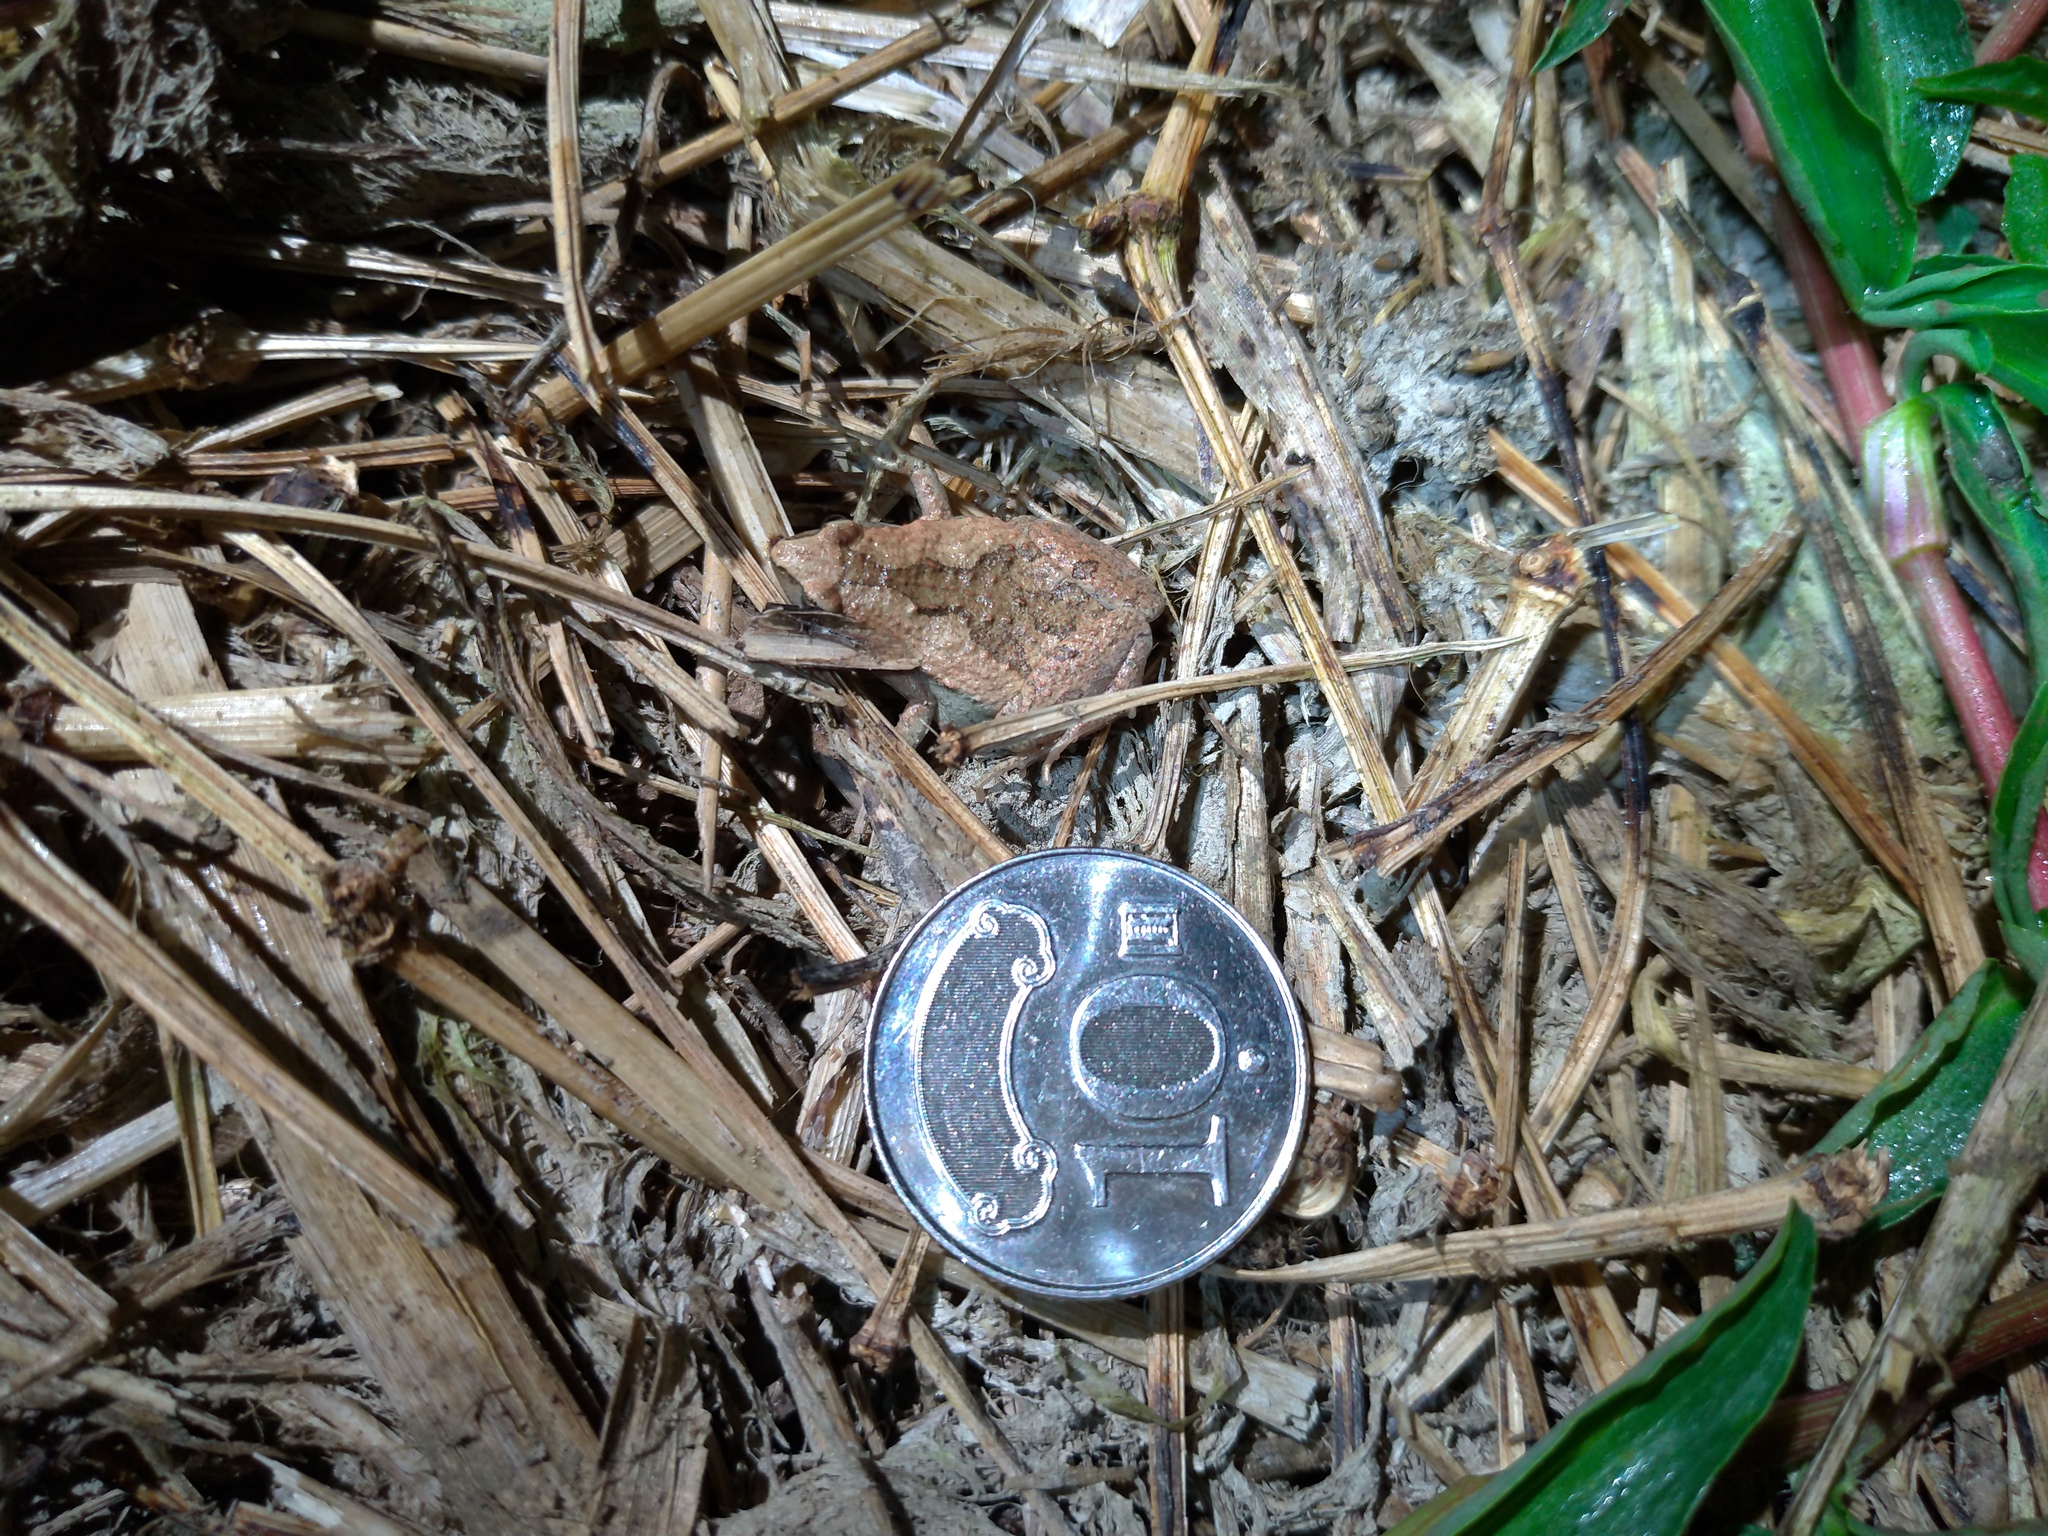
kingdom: Animalia
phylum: Chordata
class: Amphibia
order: Anura
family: Microhylidae
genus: Microhyla
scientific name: Microhyla fissipes
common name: Ornate narrow-mouthed frog
